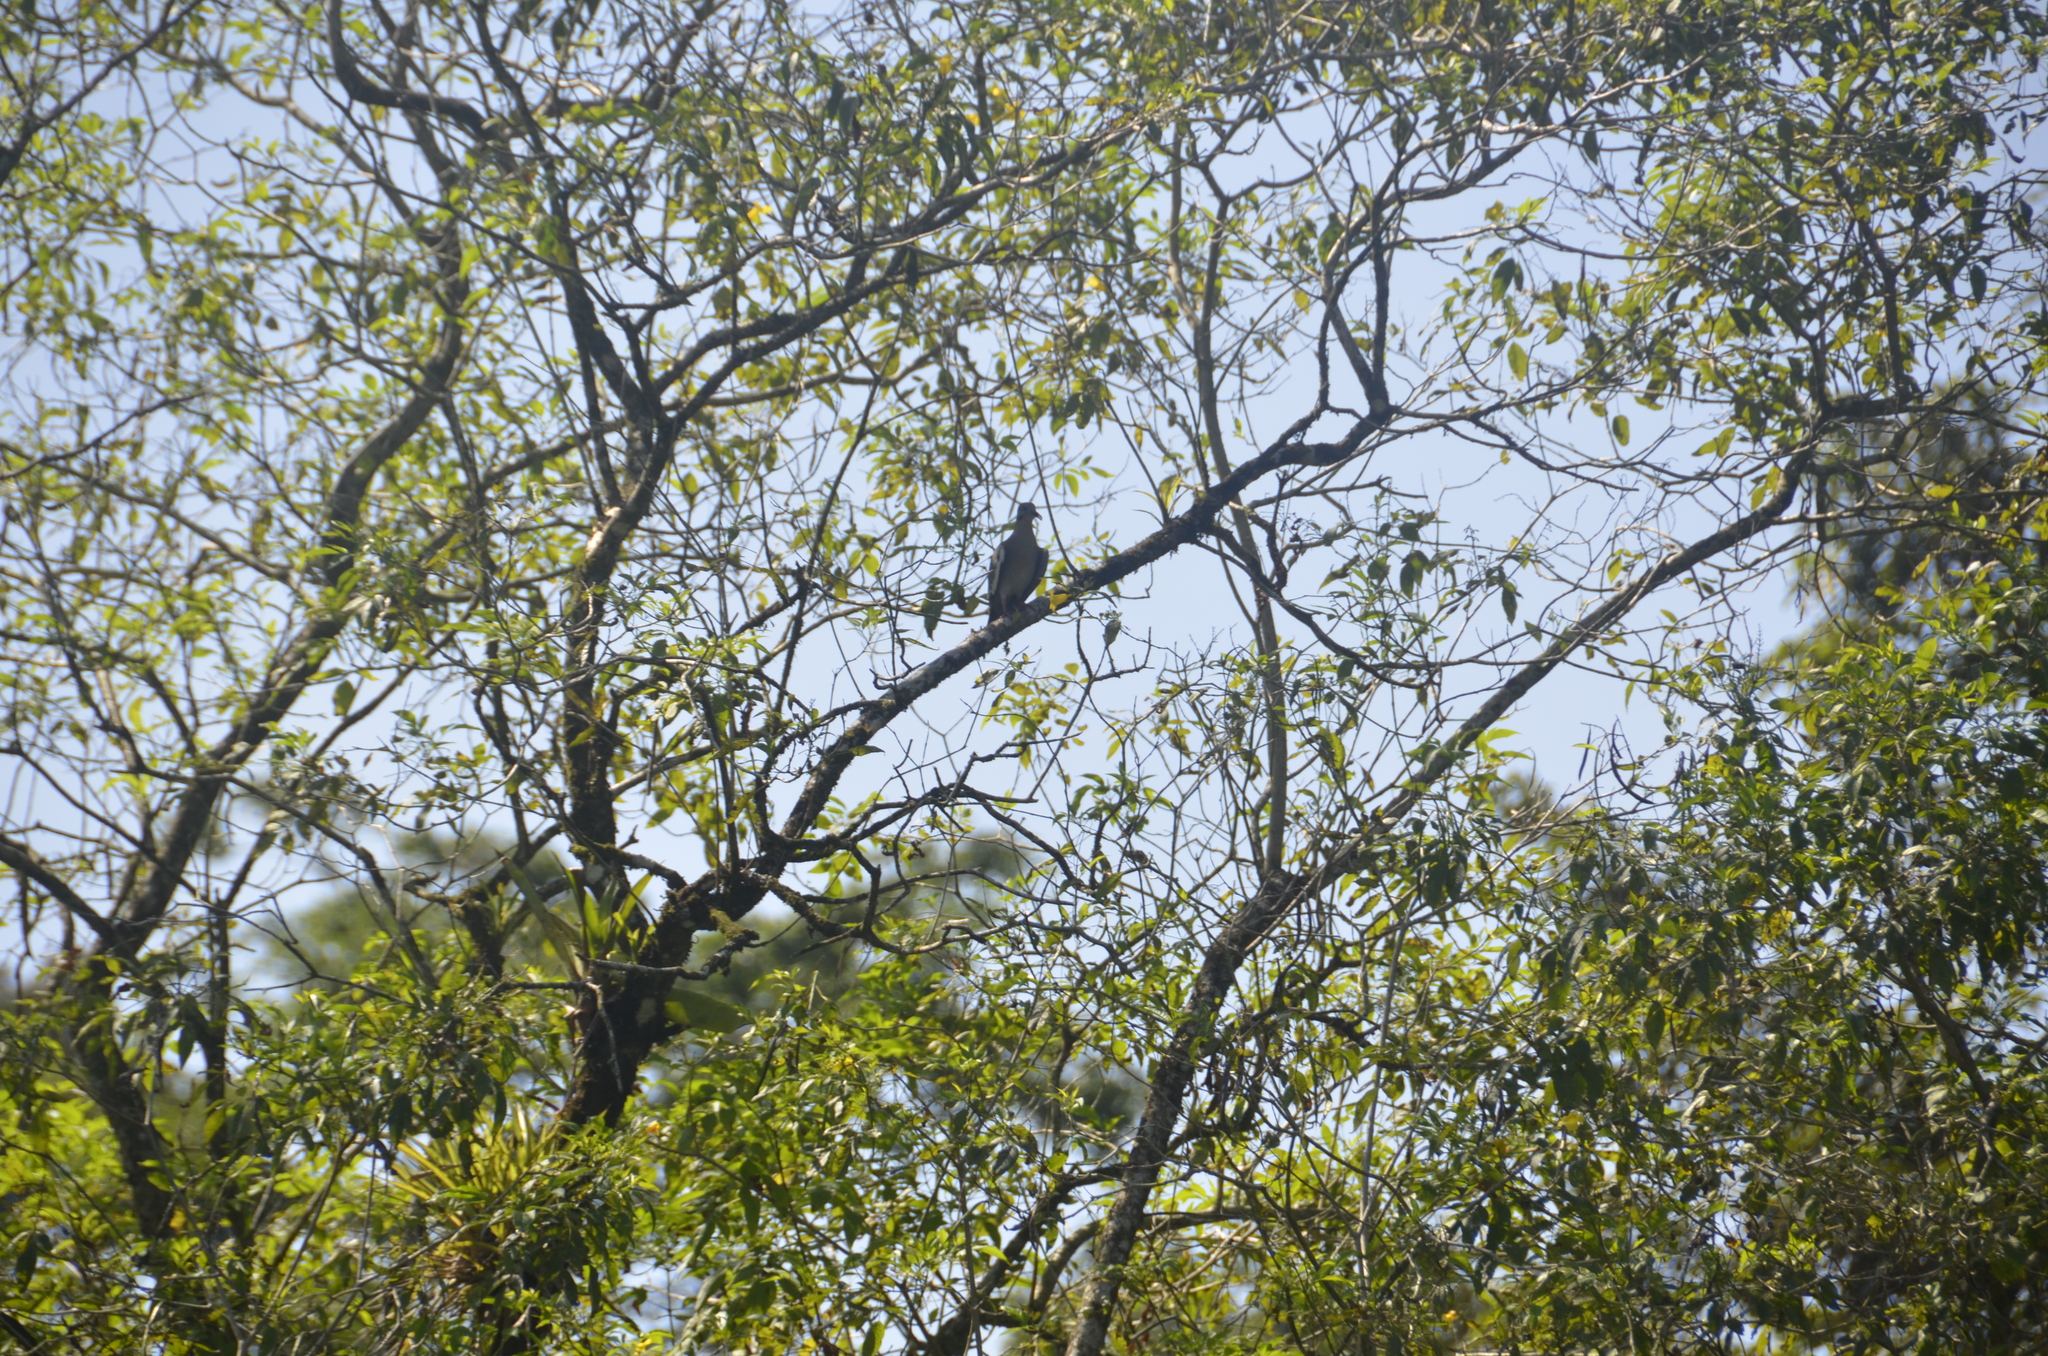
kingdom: Animalia
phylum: Chordata
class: Aves
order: Columbiformes
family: Columbidae
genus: Zenaida
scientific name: Zenaida asiatica
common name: White-winged dove
